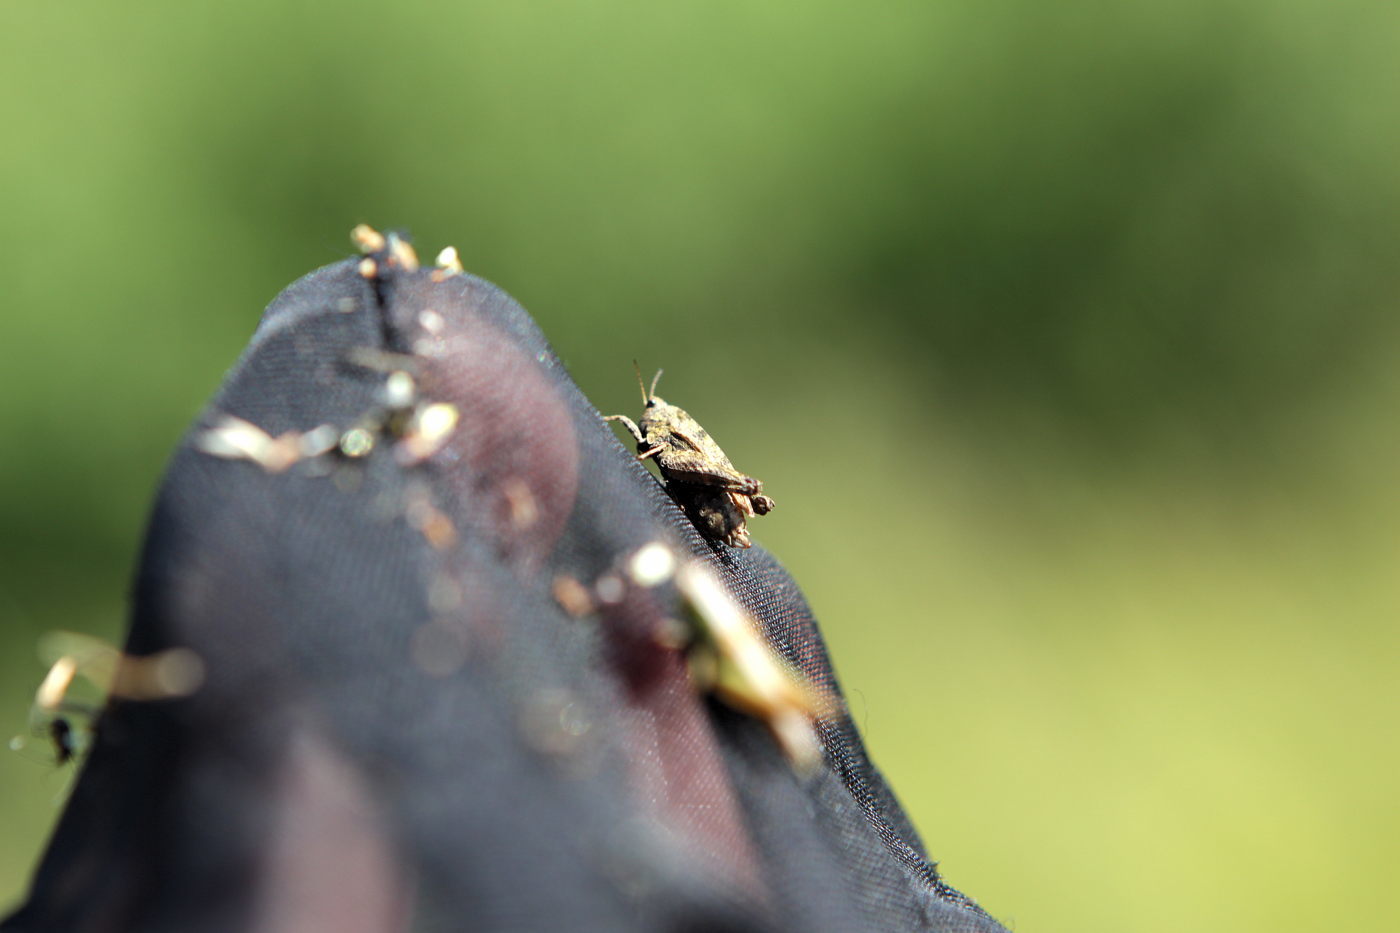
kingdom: Animalia
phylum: Arthropoda
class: Insecta
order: Orthoptera
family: Tetrigidae
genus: Tetrix
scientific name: Tetrix undulata
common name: Common groundhopper
